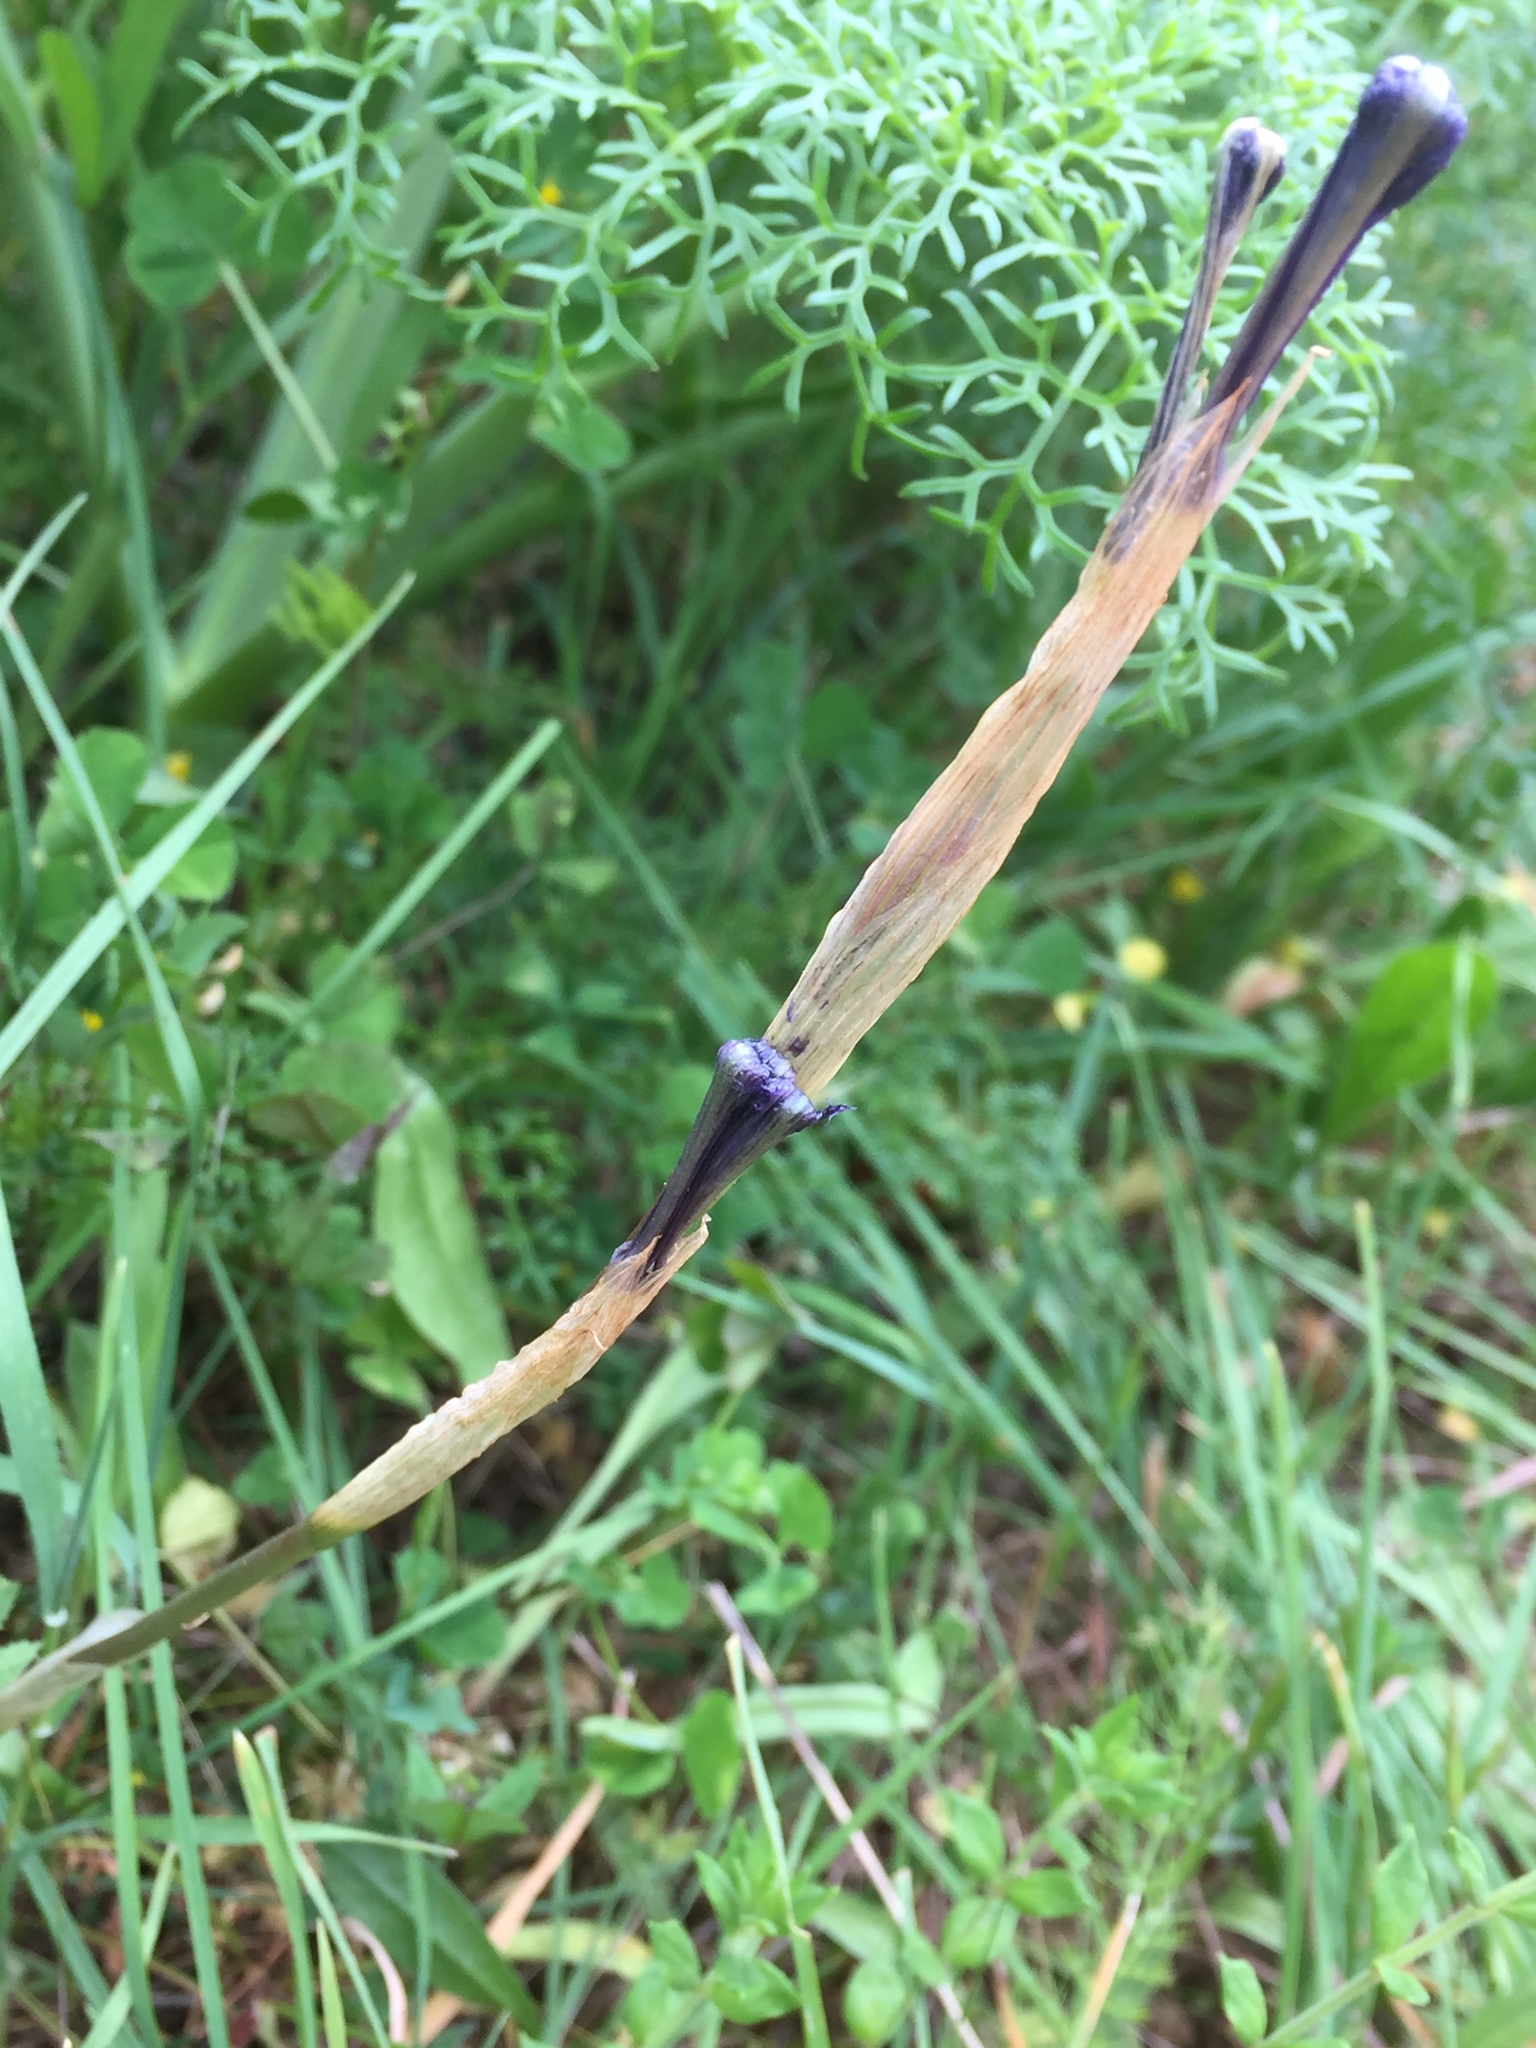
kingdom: Plantae
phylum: Tracheophyta
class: Liliopsida
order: Asparagales
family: Iridaceae
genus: Moraea
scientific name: Moraea sisyrinchium
